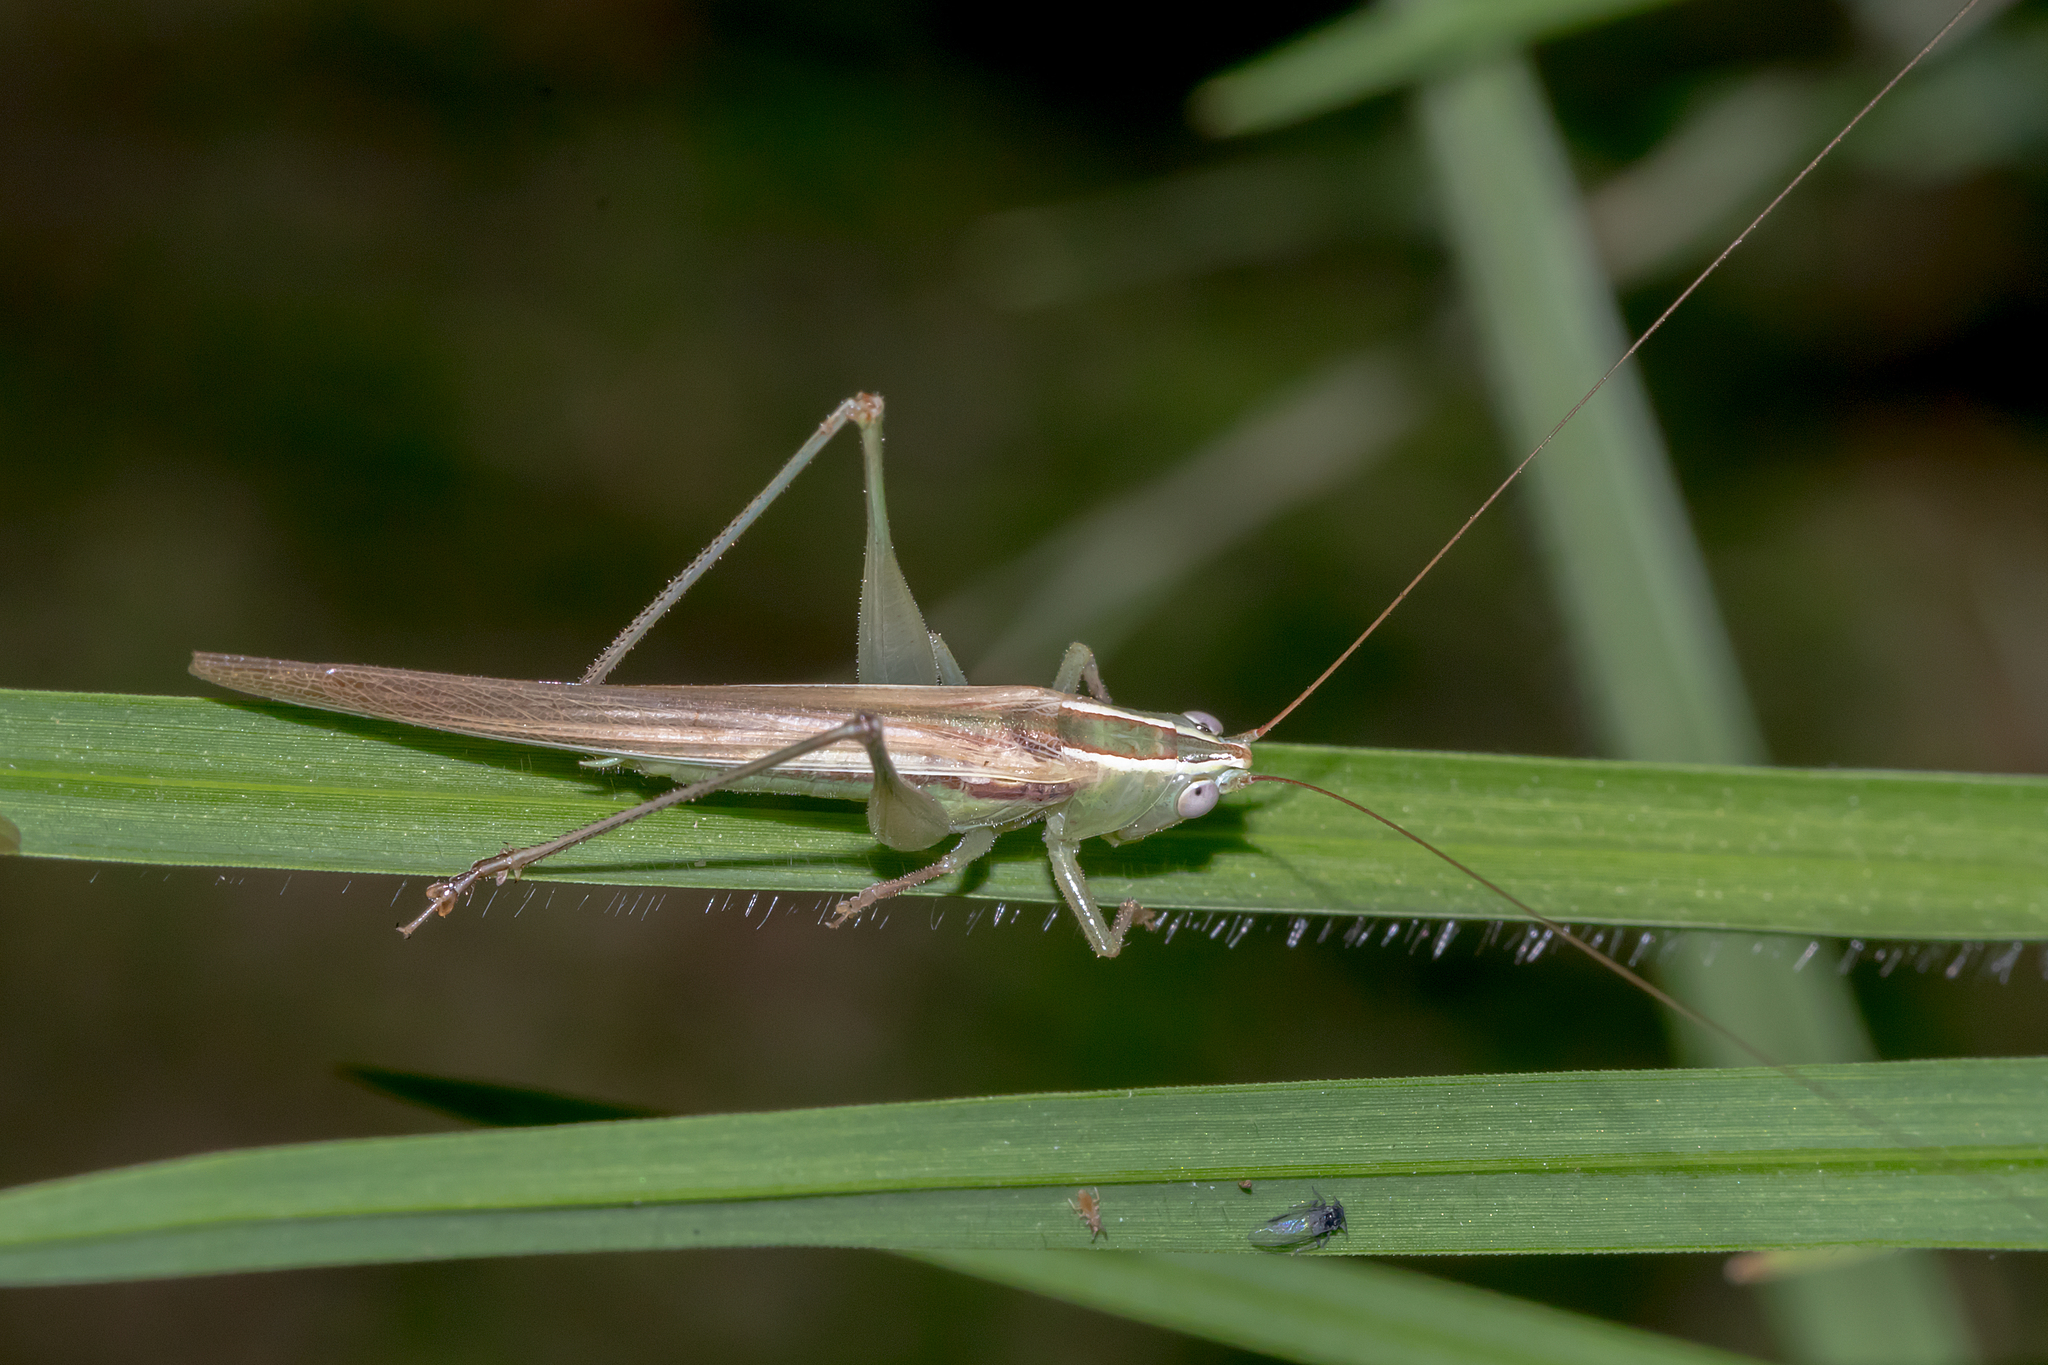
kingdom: Animalia
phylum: Arthropoda
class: Insecta
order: Orthoptera
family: Tettigoniidae
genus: Conocephalus
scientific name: Conocephalus upoluensis
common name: Upolu meadow katydid
